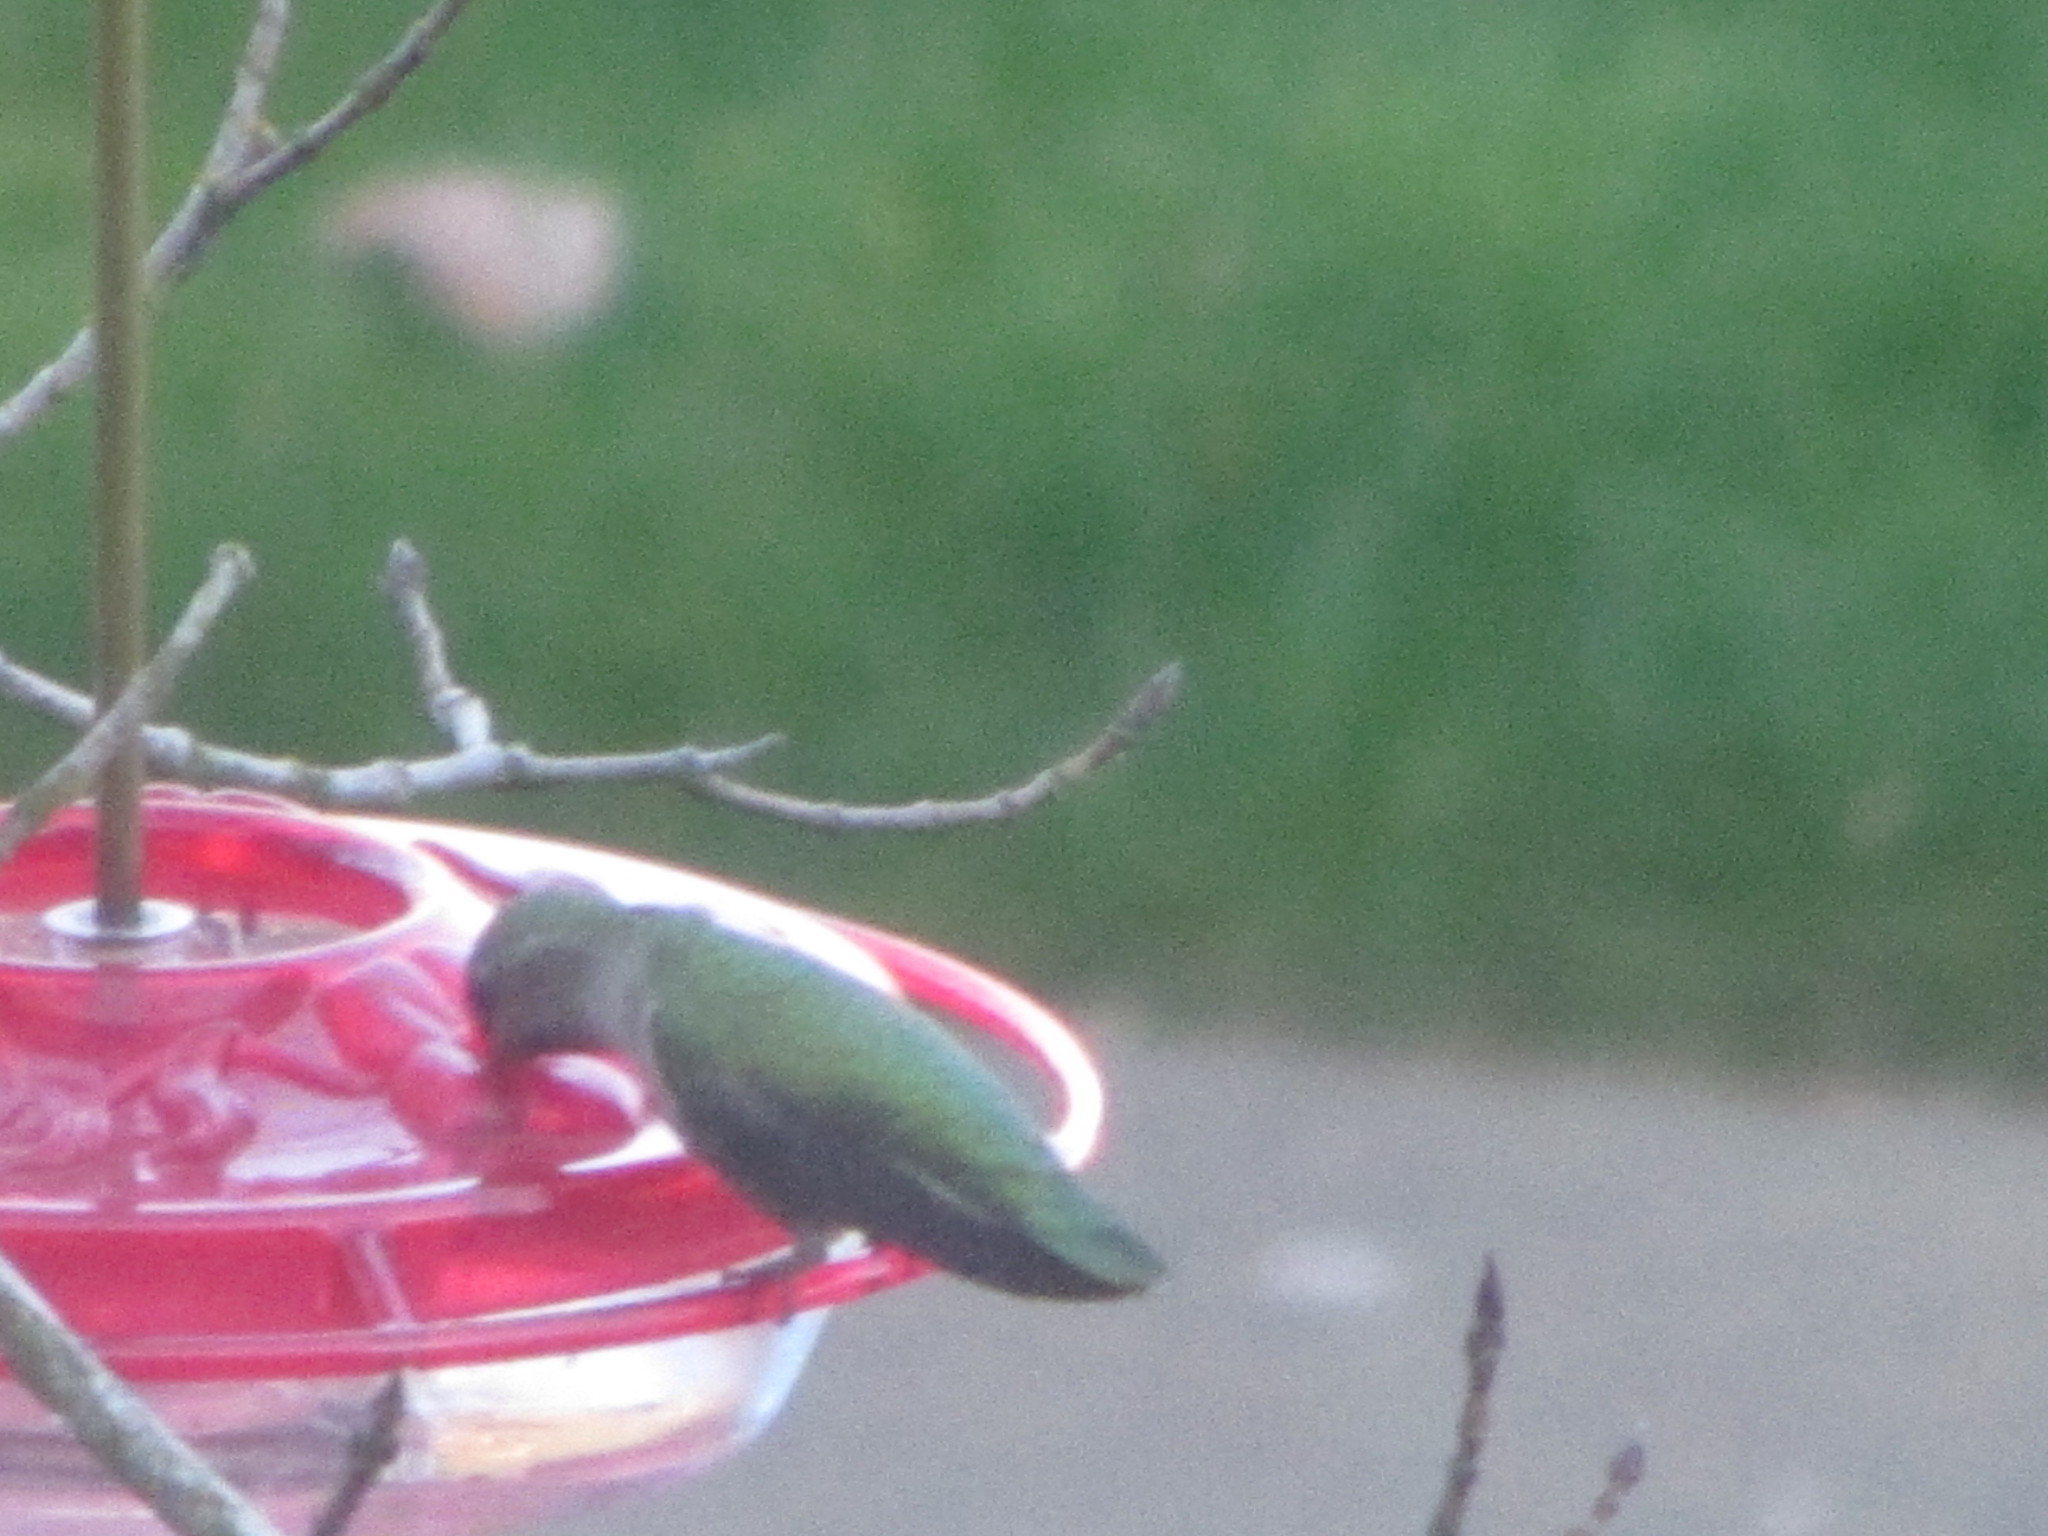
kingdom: Animalia
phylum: Chordata
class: Aves
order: Apodiformes
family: Trochilidae
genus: Calypte
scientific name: Calypte anna
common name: Anna's hummingbird
